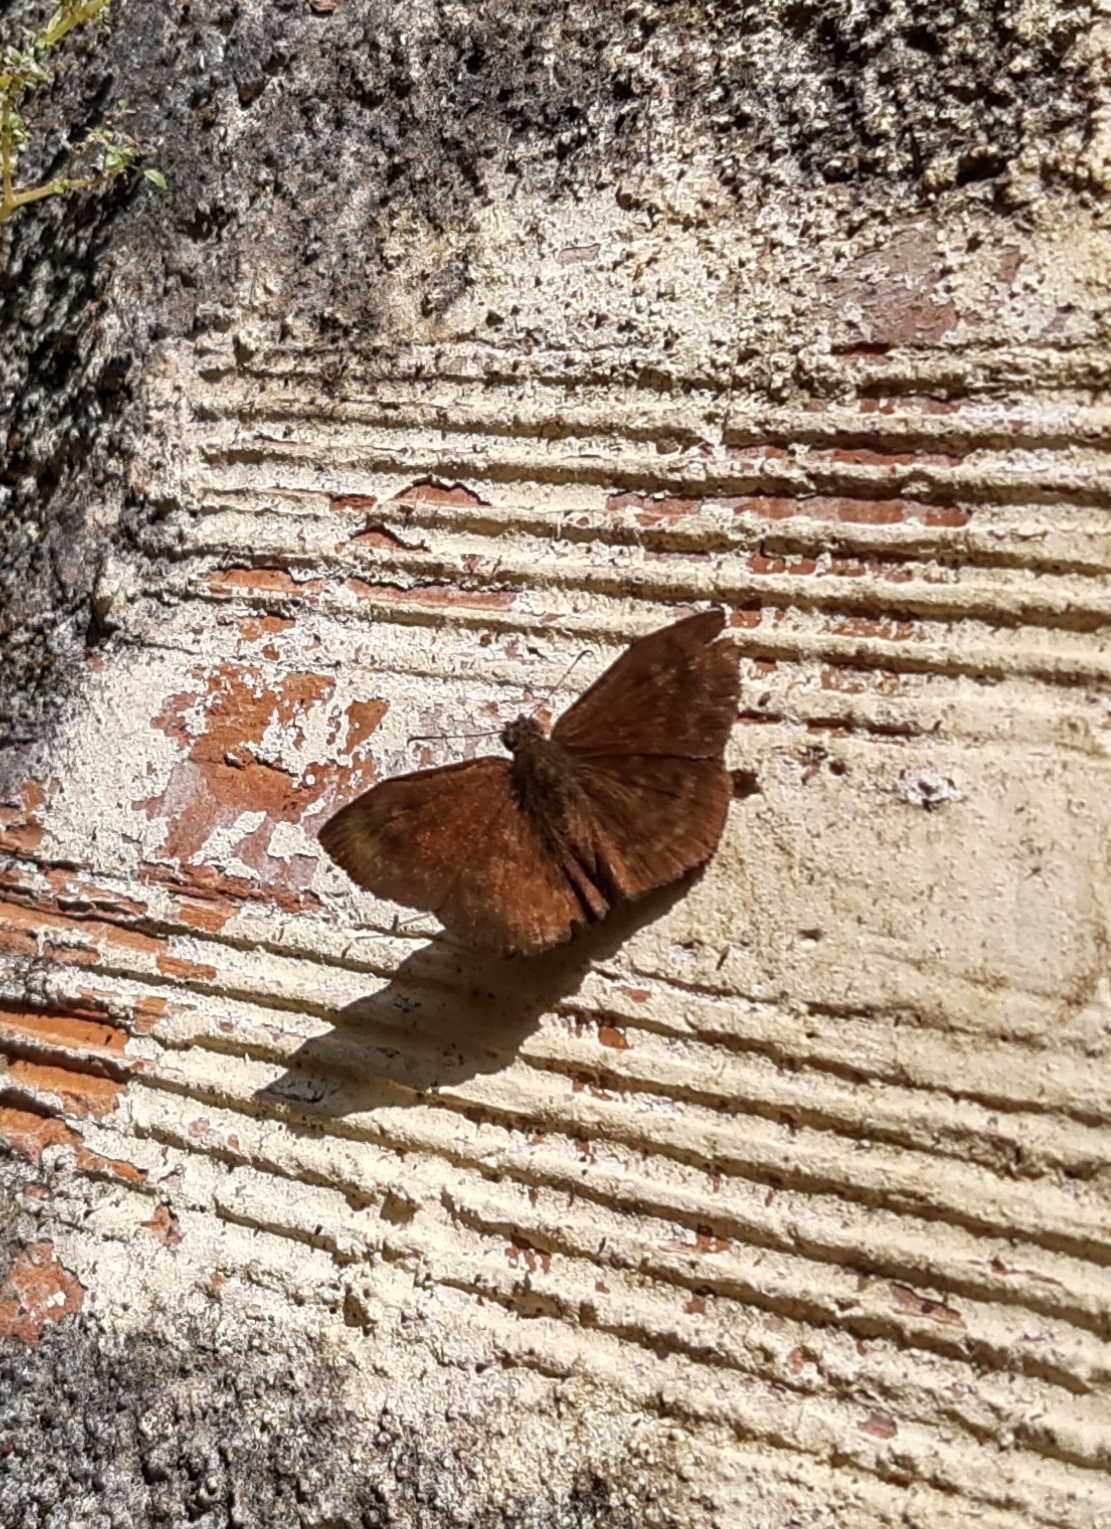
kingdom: Animalia
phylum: Arthropoda
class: Insecta
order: Lepidoptera
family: Hesperiidae
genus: Bolla
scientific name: Bolla catharina
